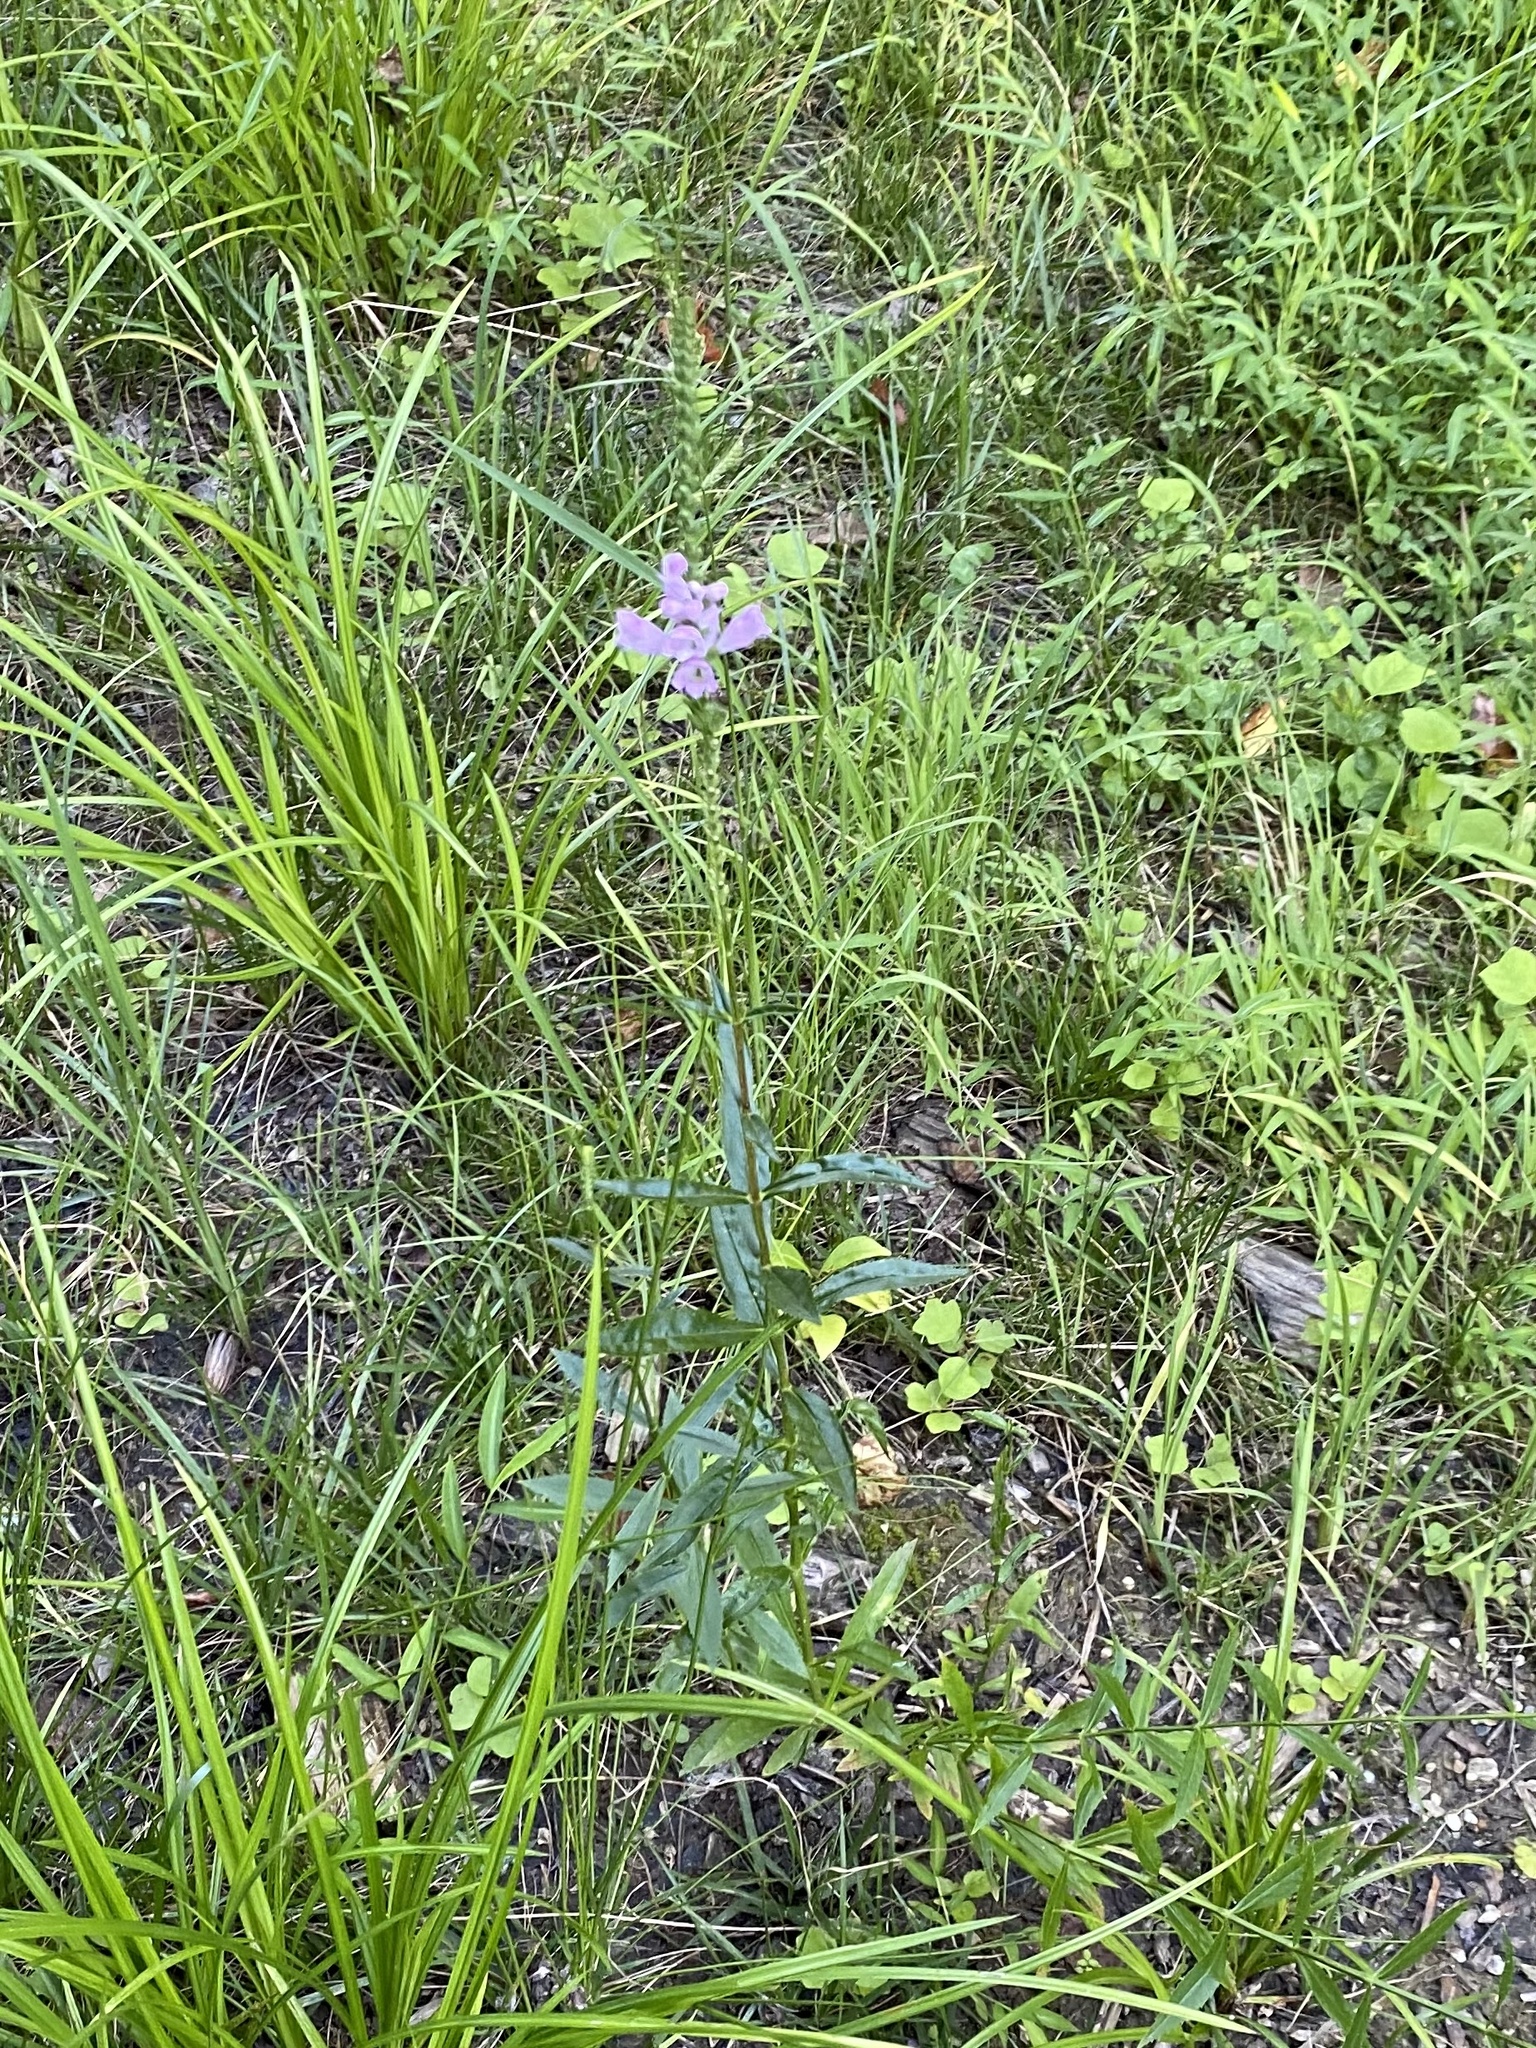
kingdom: Plantae
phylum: Tracheophyta
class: Magnoliopsida
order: Lamiales
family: Lamiaceae
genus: Physostegia
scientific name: Physostegia virginiana
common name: Obedient-plant
